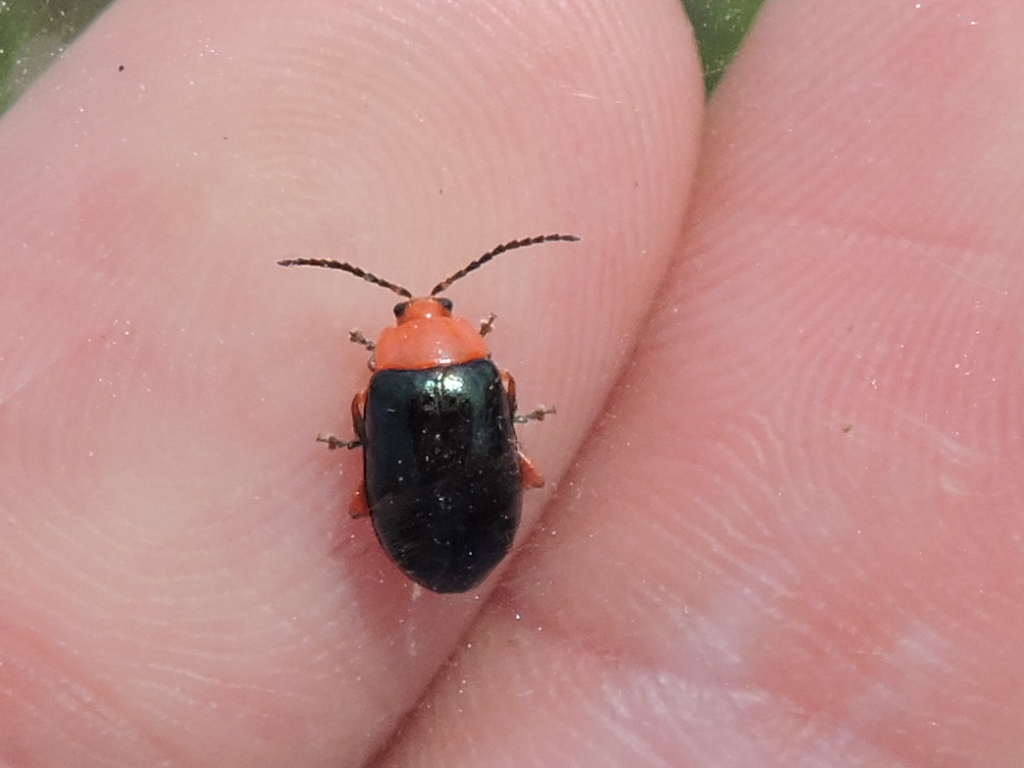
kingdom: Animalia
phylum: Arthropoda
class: Insecta
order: Coleoptera
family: Chrysomelidae
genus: Asphaera
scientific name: Asphaera lustrans
